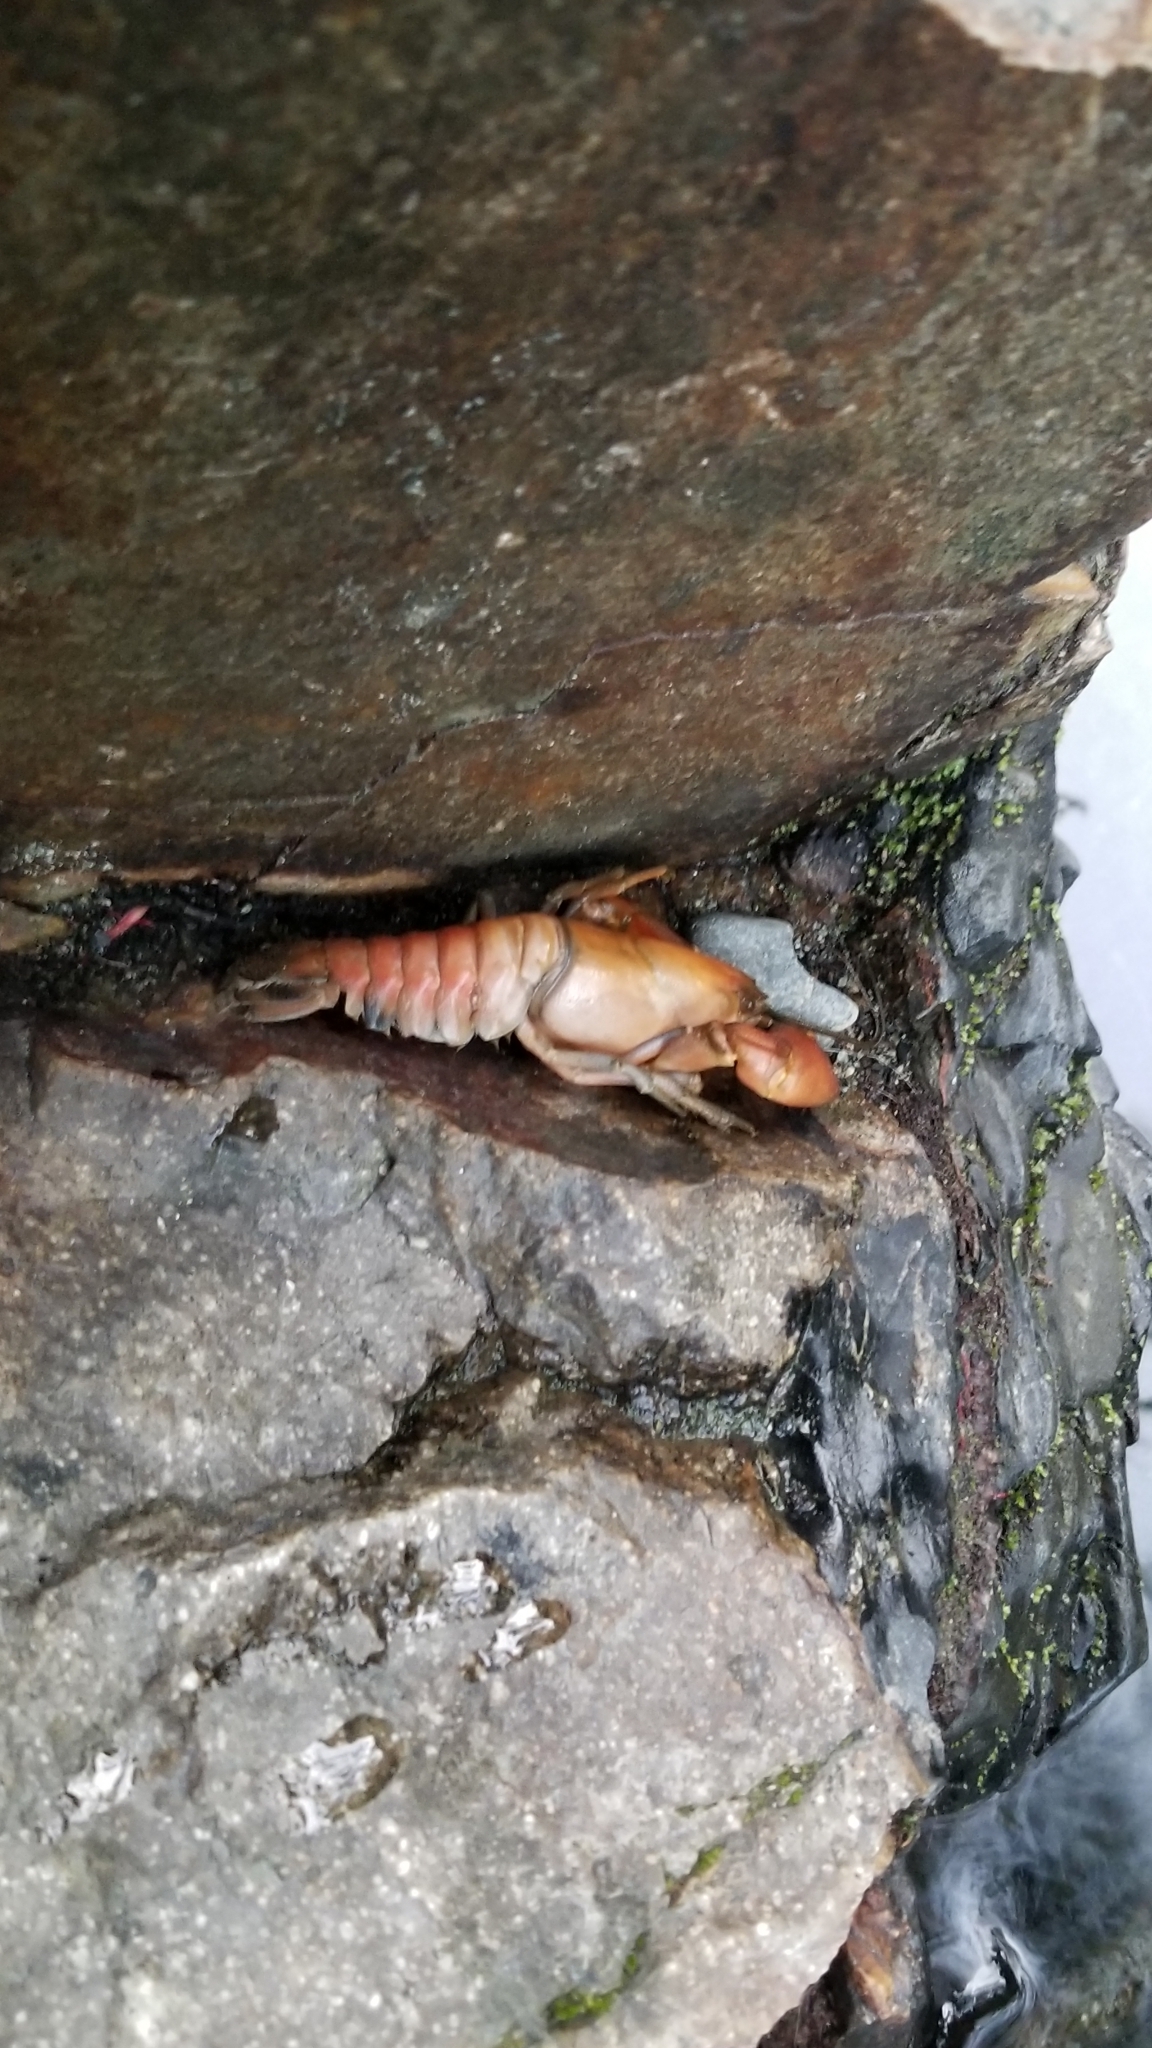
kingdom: Animalia
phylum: Arthropoda
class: Malacostraca
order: Decapoda
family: Astacidae
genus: Pacifastacus
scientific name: Pacifastacus leniusculus
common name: Signal crayfish
